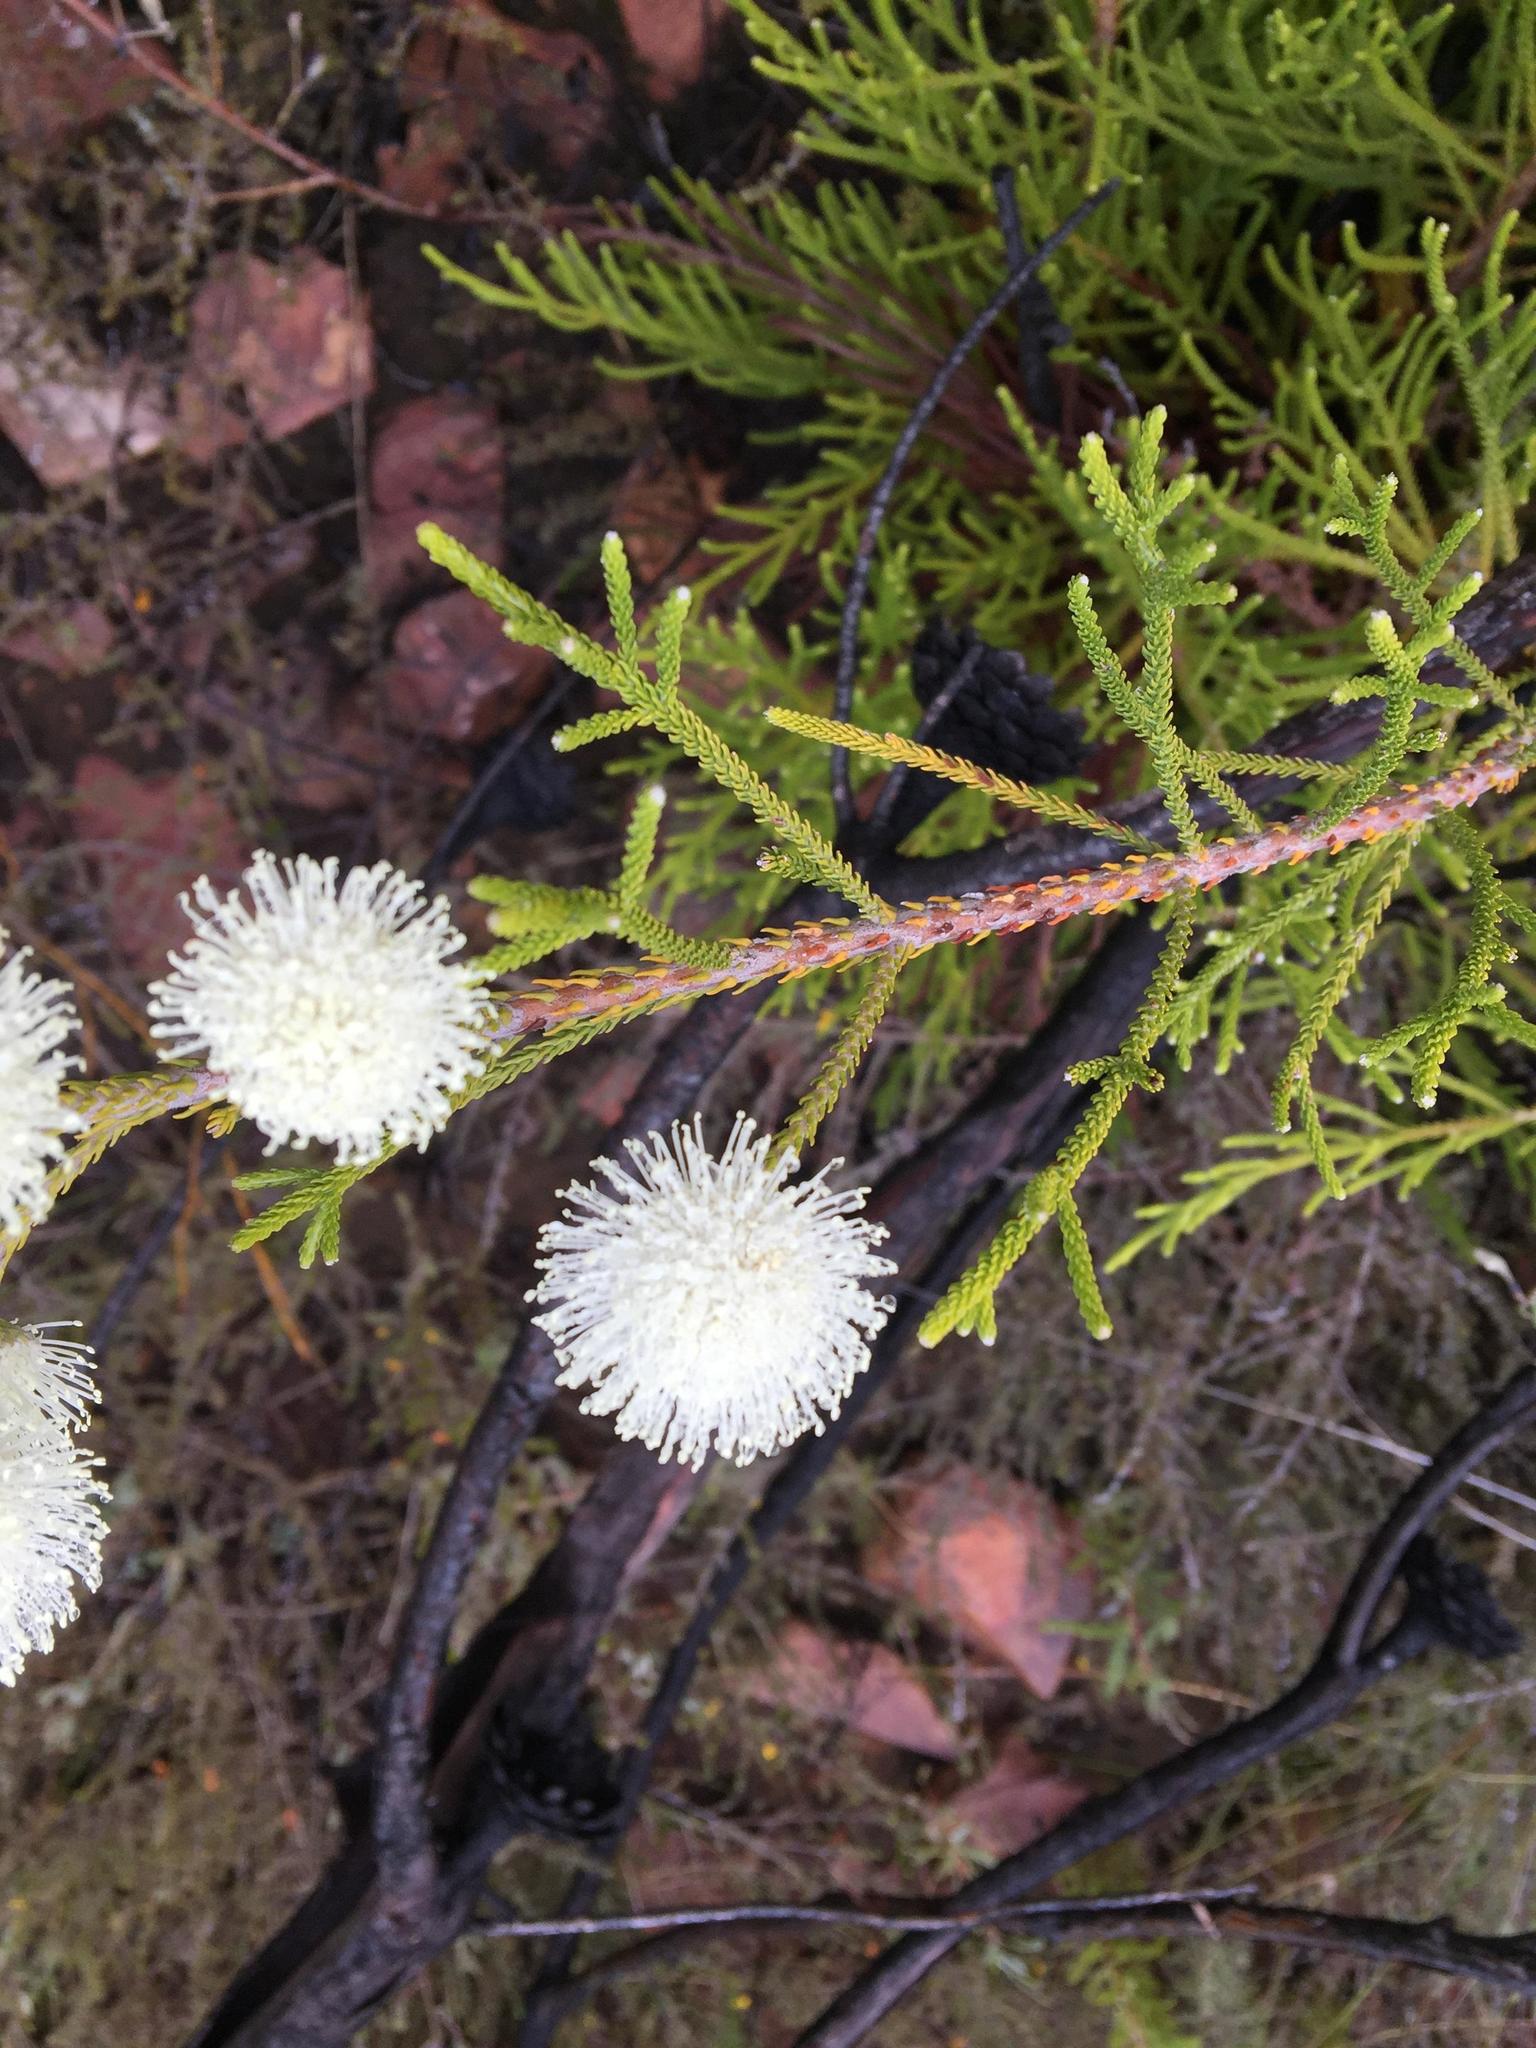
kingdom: Plantae
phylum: Tracheophyta
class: Magnoliopsida
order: Bruniales
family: Bruniaceae
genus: Brunia
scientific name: Brunia noduliflora
